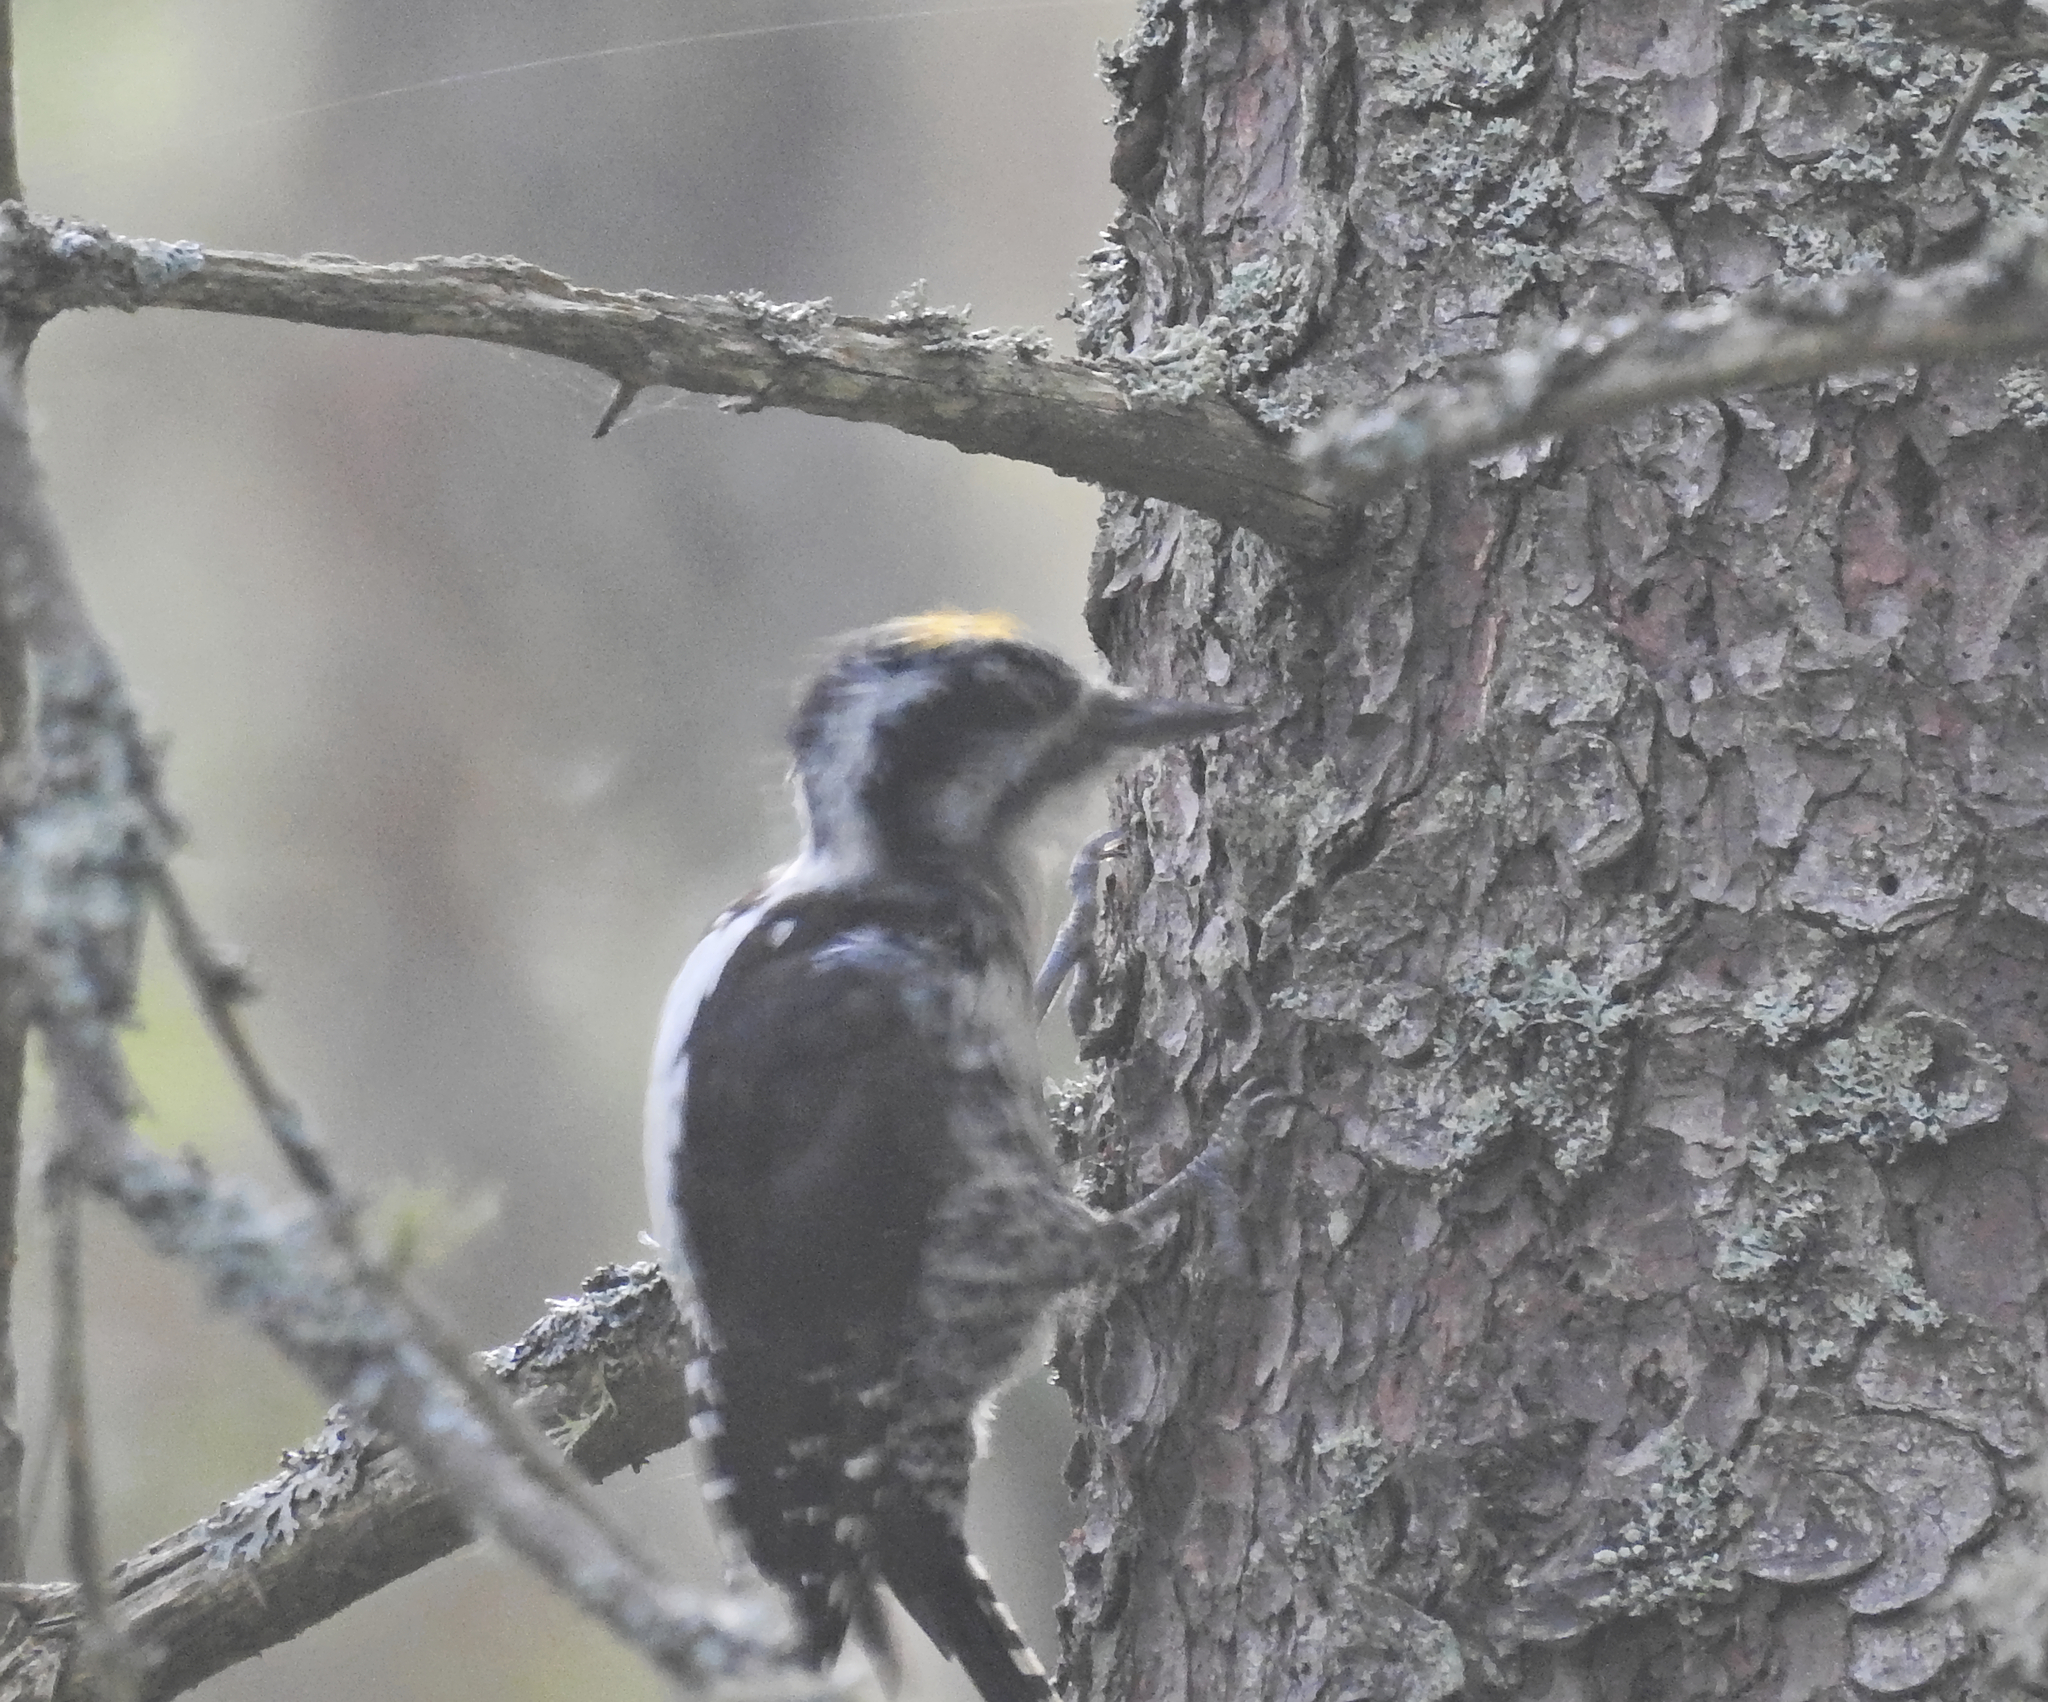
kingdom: Animalia
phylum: Chordata
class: Aves
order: Piciformes
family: Picidae
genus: Picoides
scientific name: Picoides tridactylus
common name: Eurasian three-toed woodpecker
